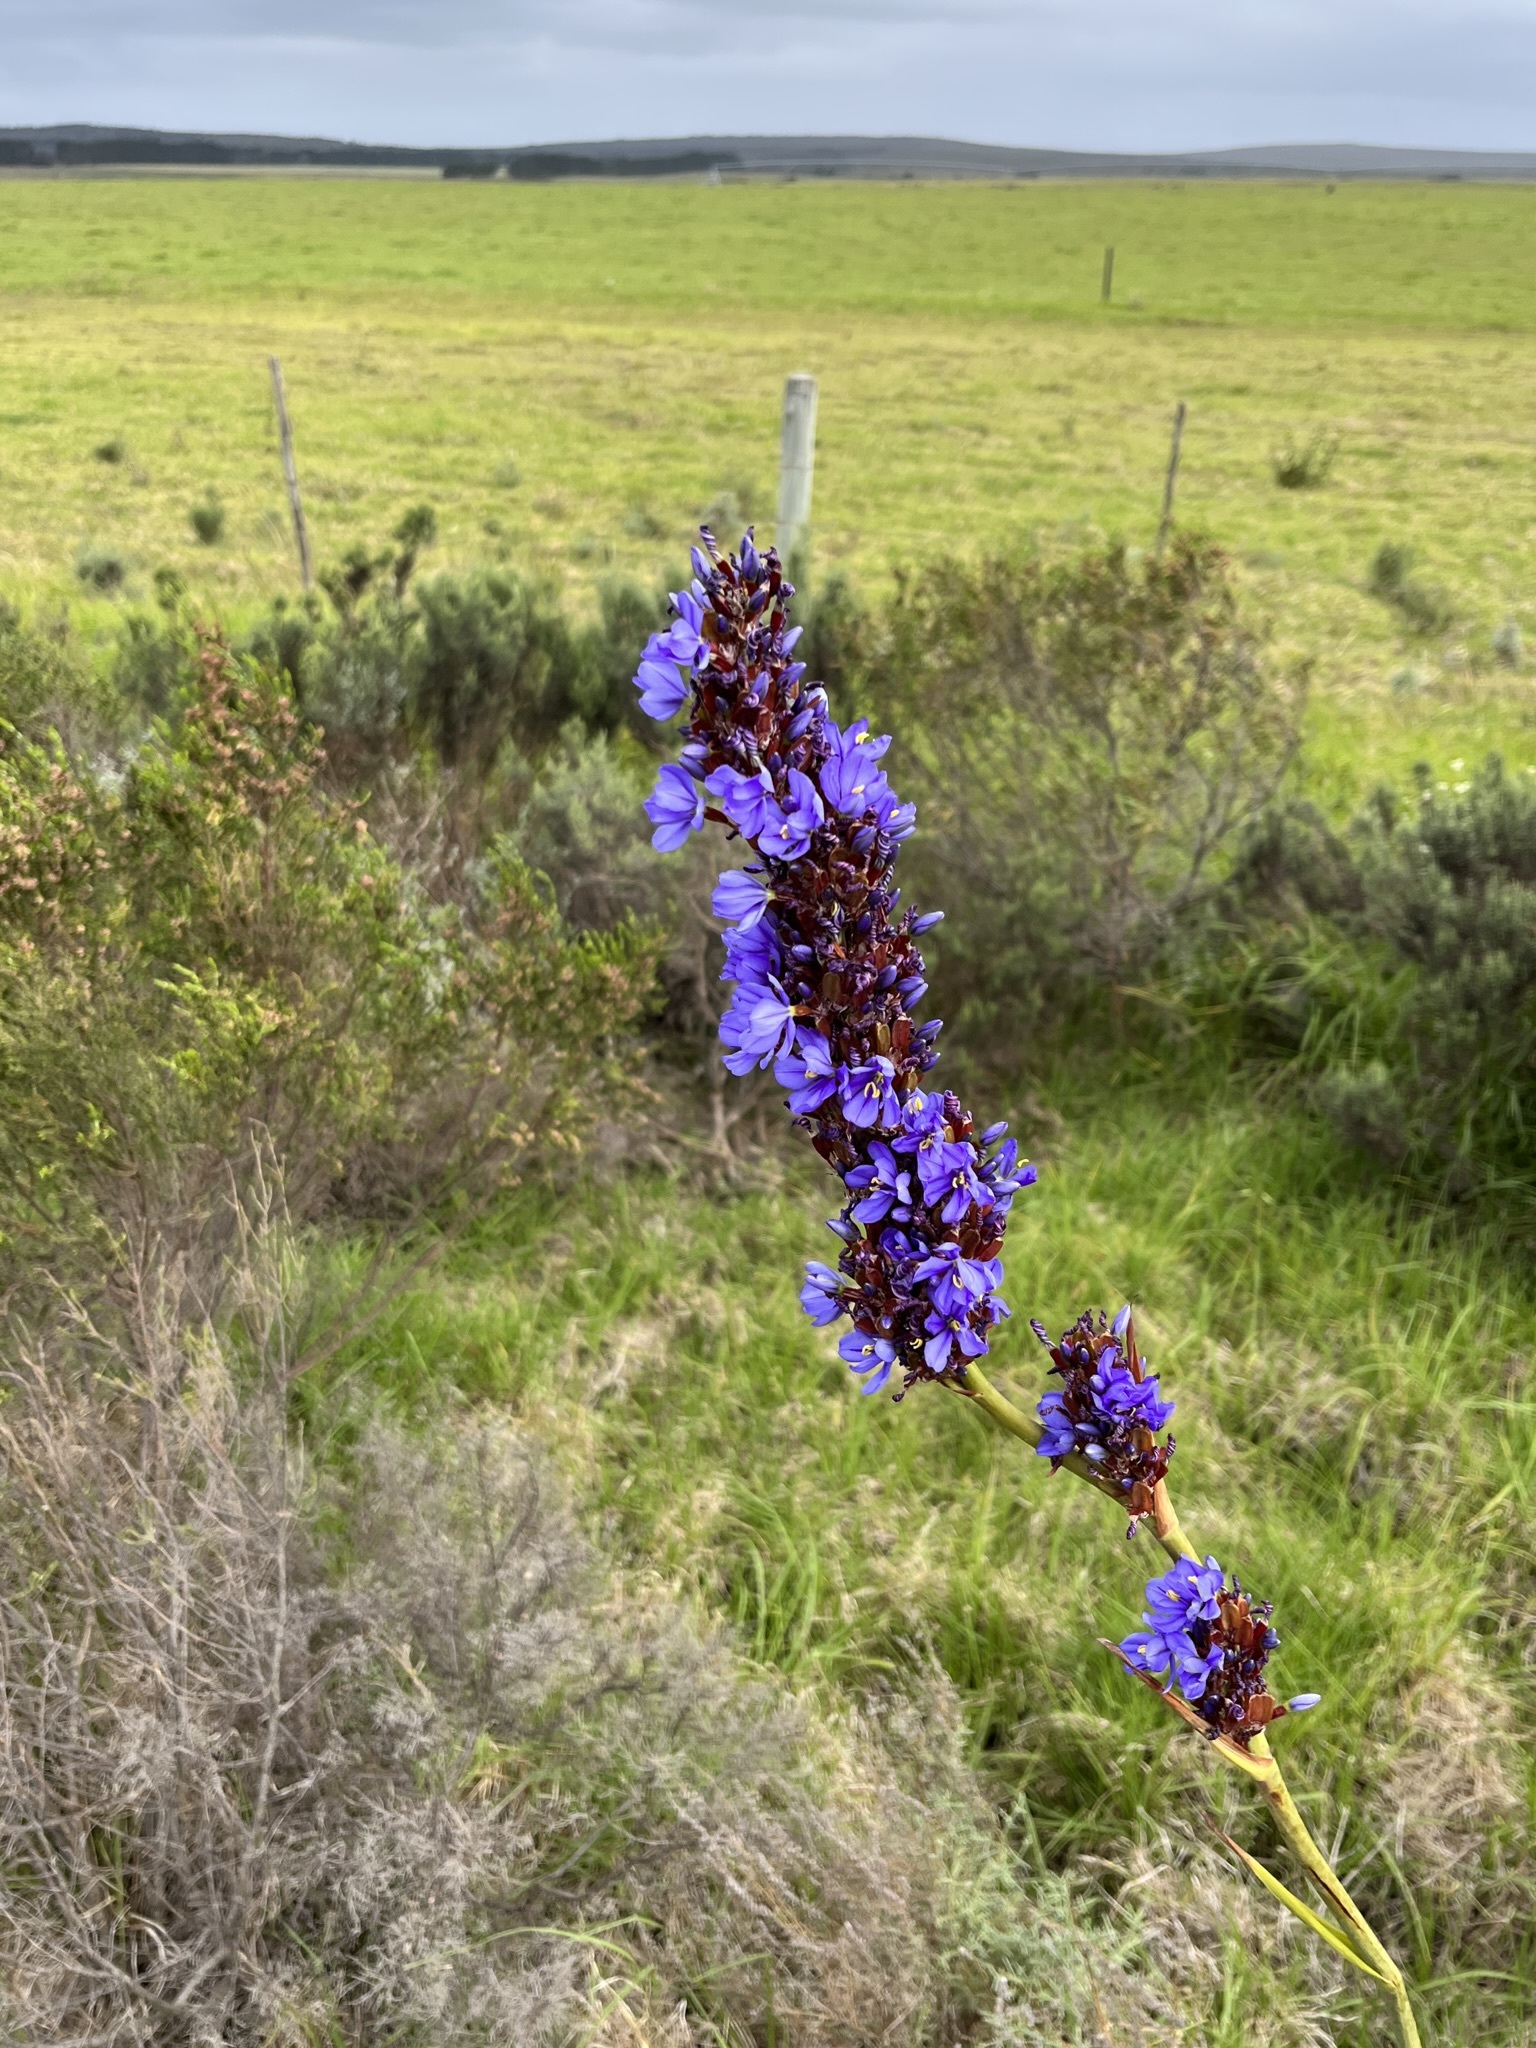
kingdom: Plantae
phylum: Tracheophyta
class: Liliopsida
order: Asparagales
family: Iridaceae
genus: Aristea
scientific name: Aristea capitata
